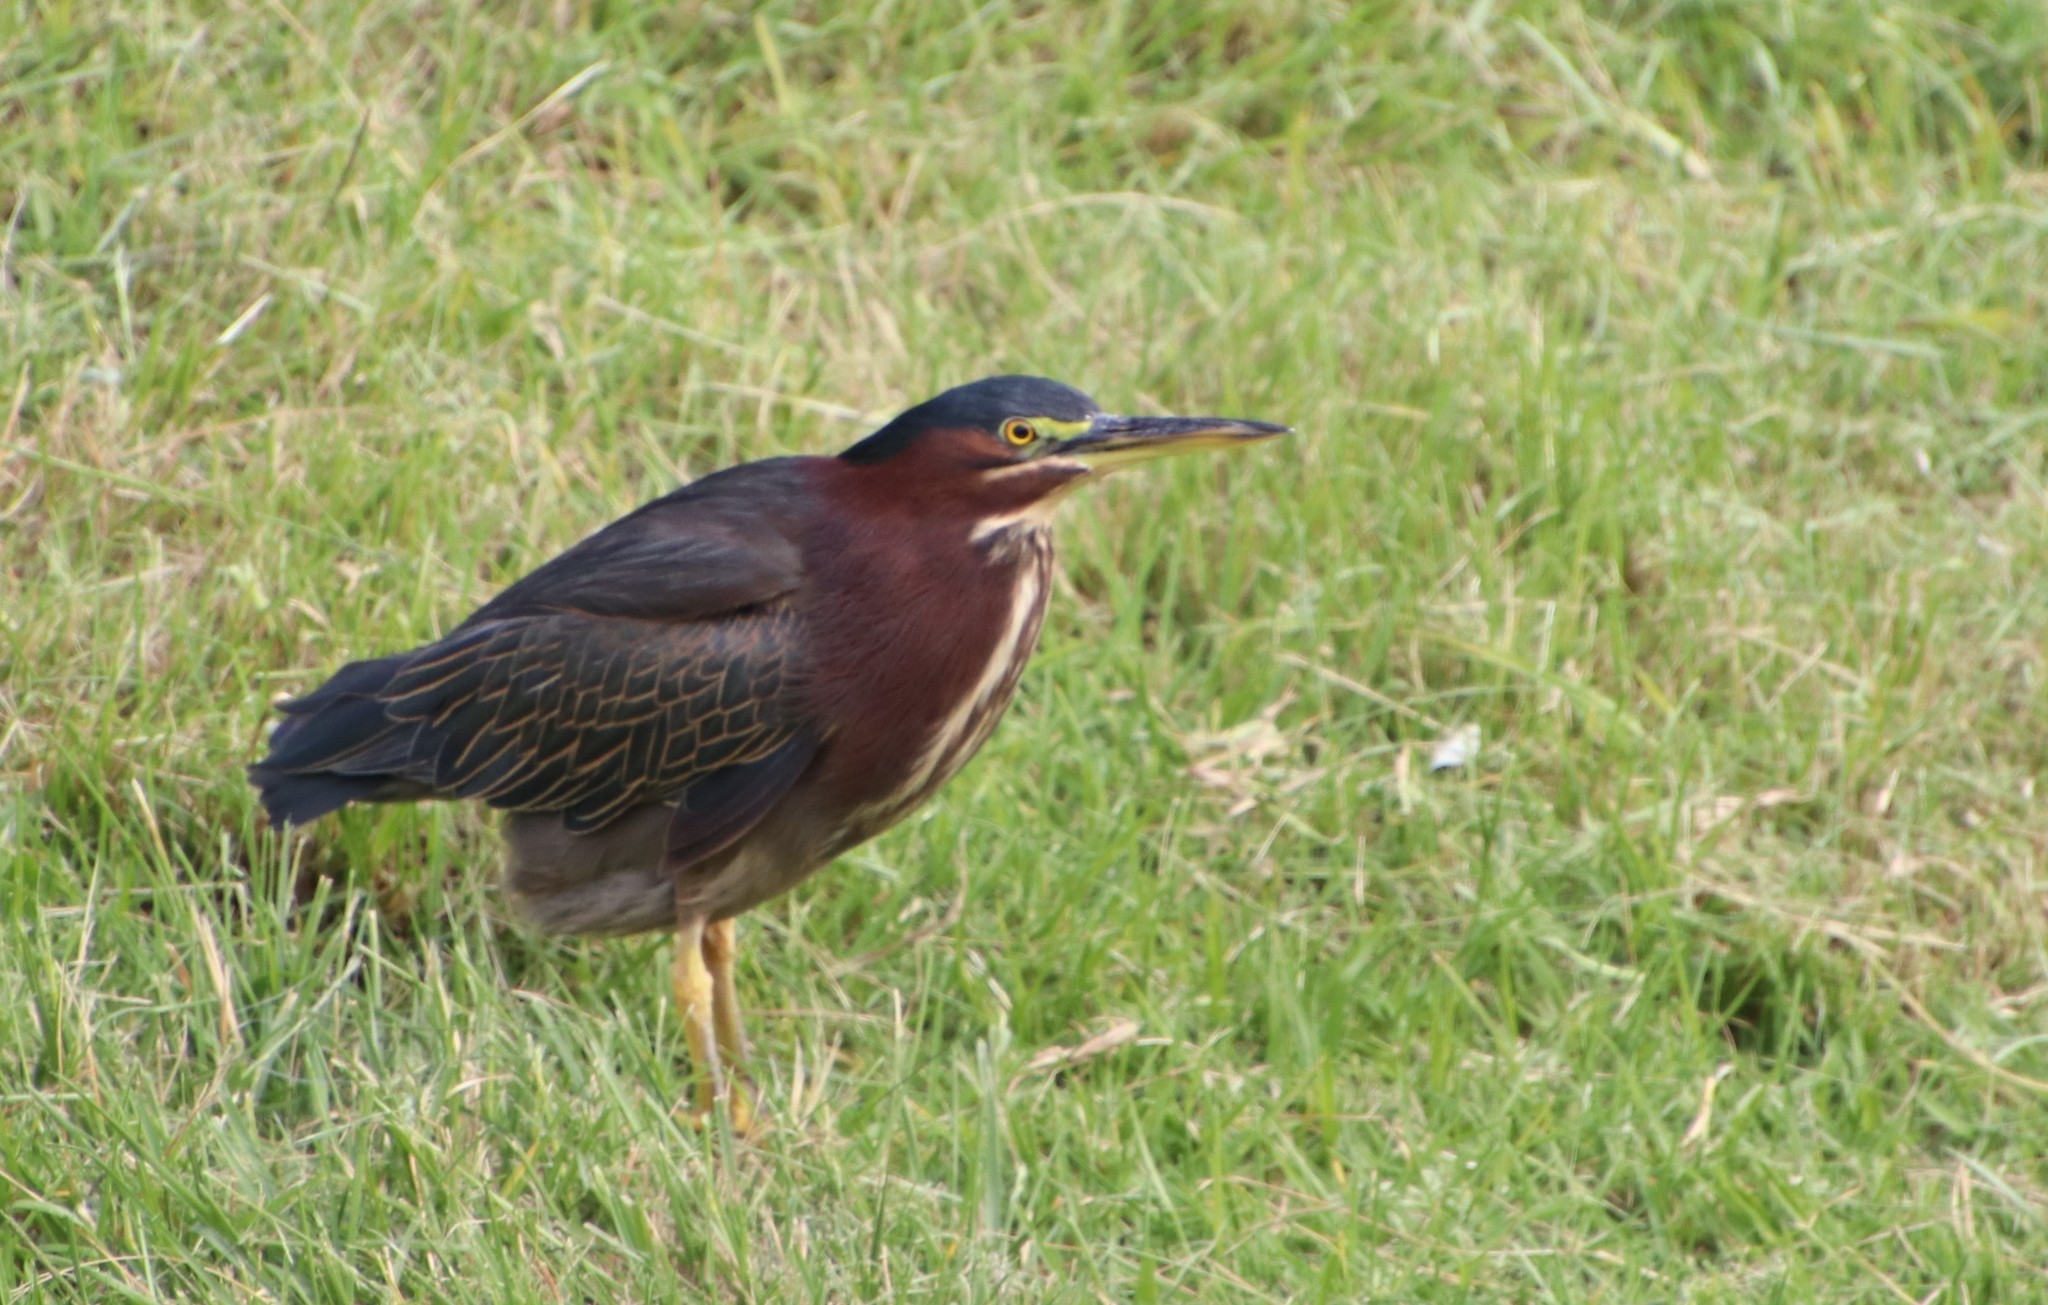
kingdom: Animalia
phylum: Chordata
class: Aves
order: Pelecaniformes
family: Ardeidae
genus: Butorides
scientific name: Butorides virescens
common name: Green heron
